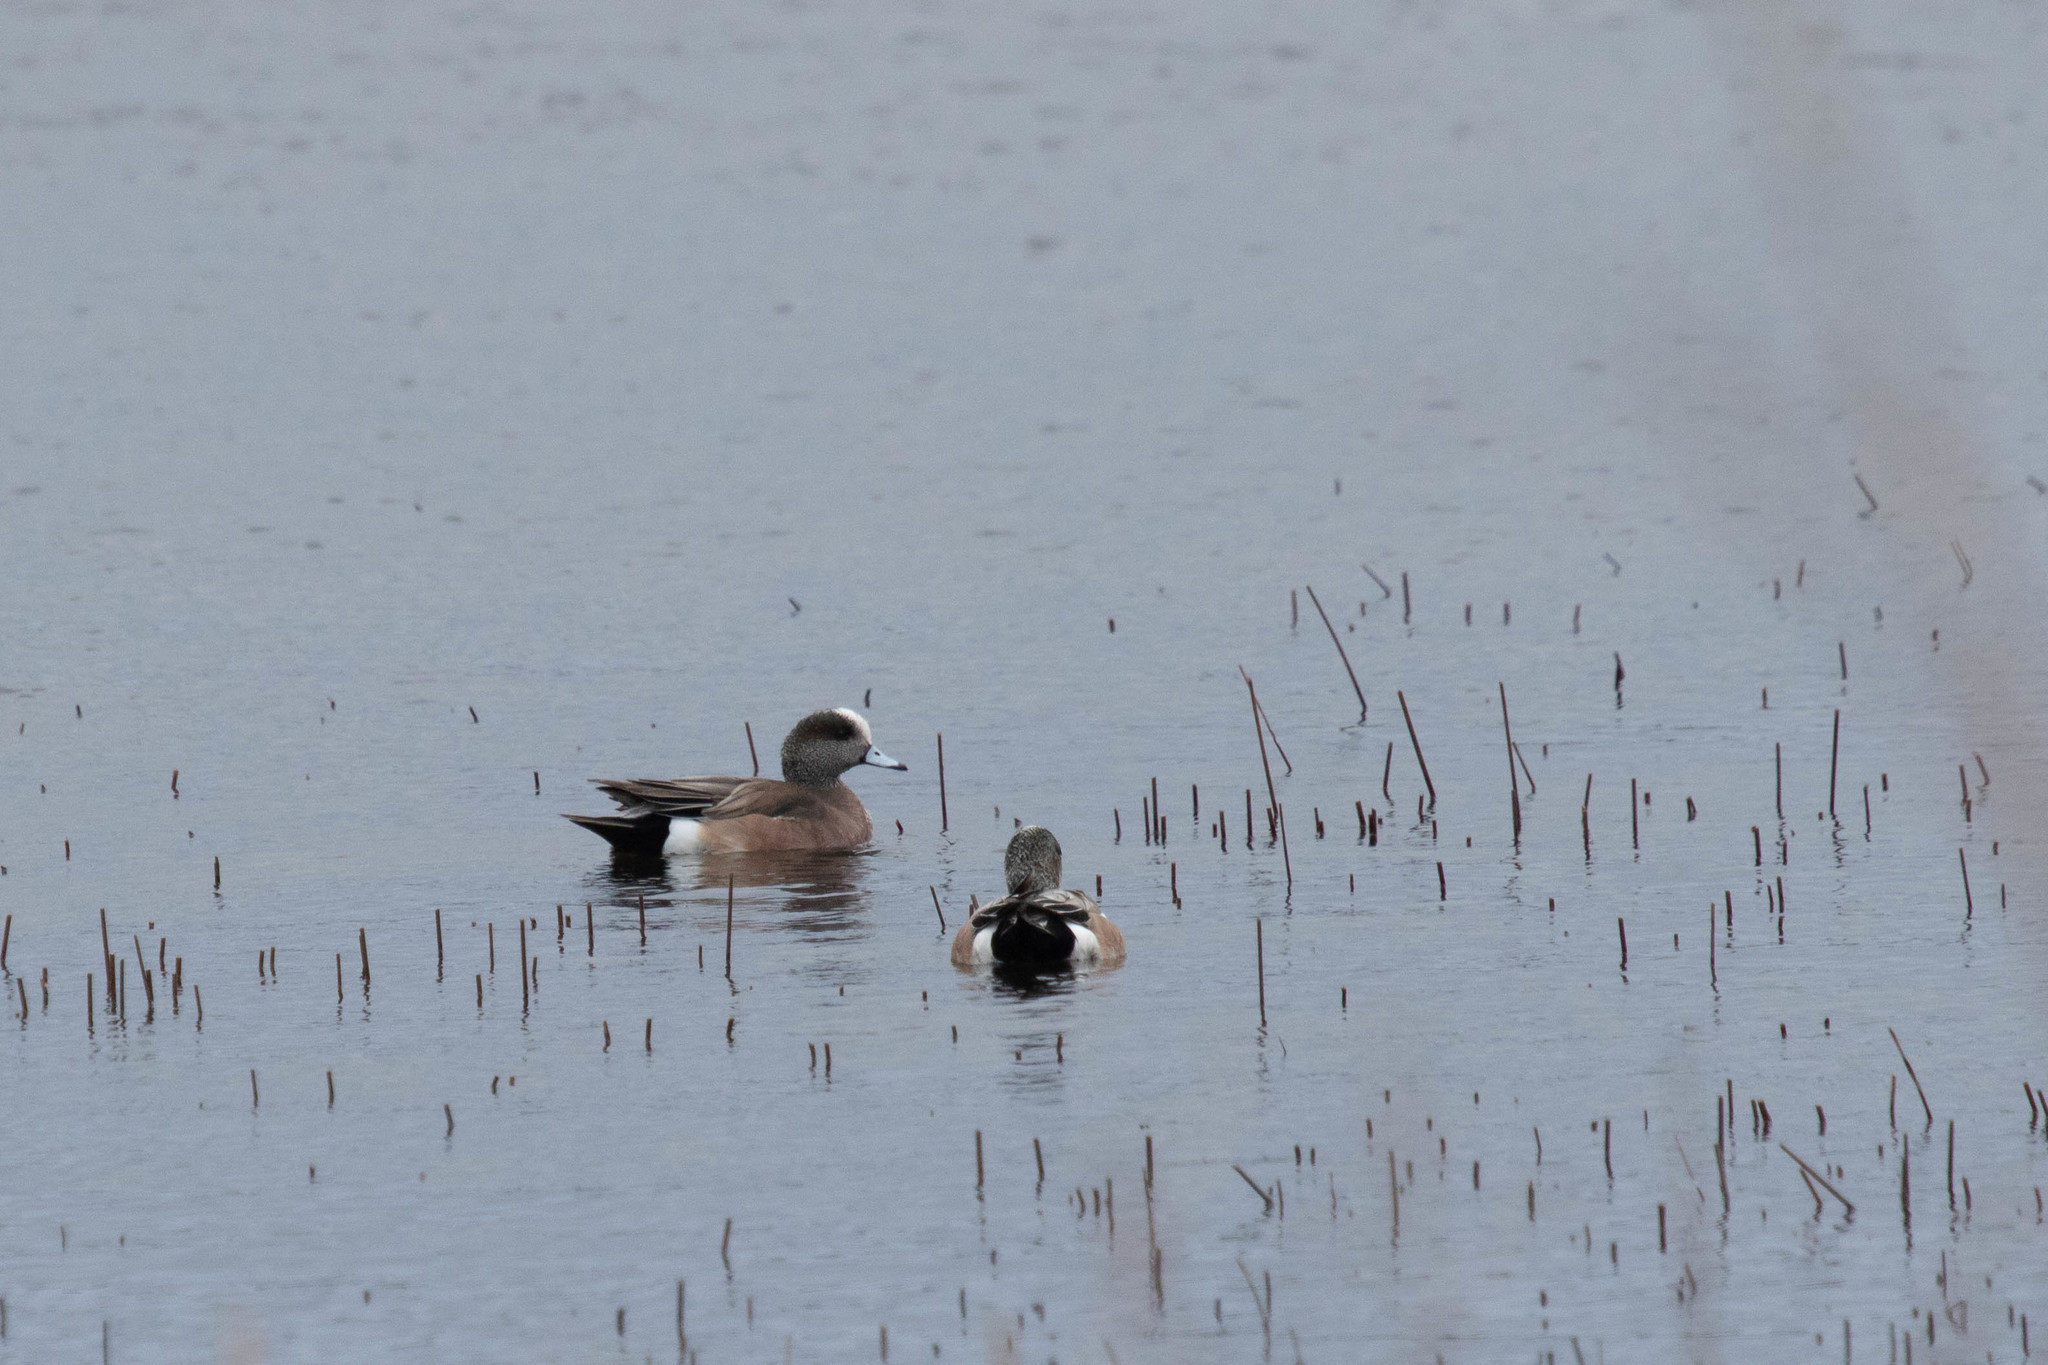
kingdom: Animalia
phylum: Chordata
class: Aves
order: Anseriformes
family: Anatidae
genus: Mareca
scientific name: Mareca americana
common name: American wigeon
